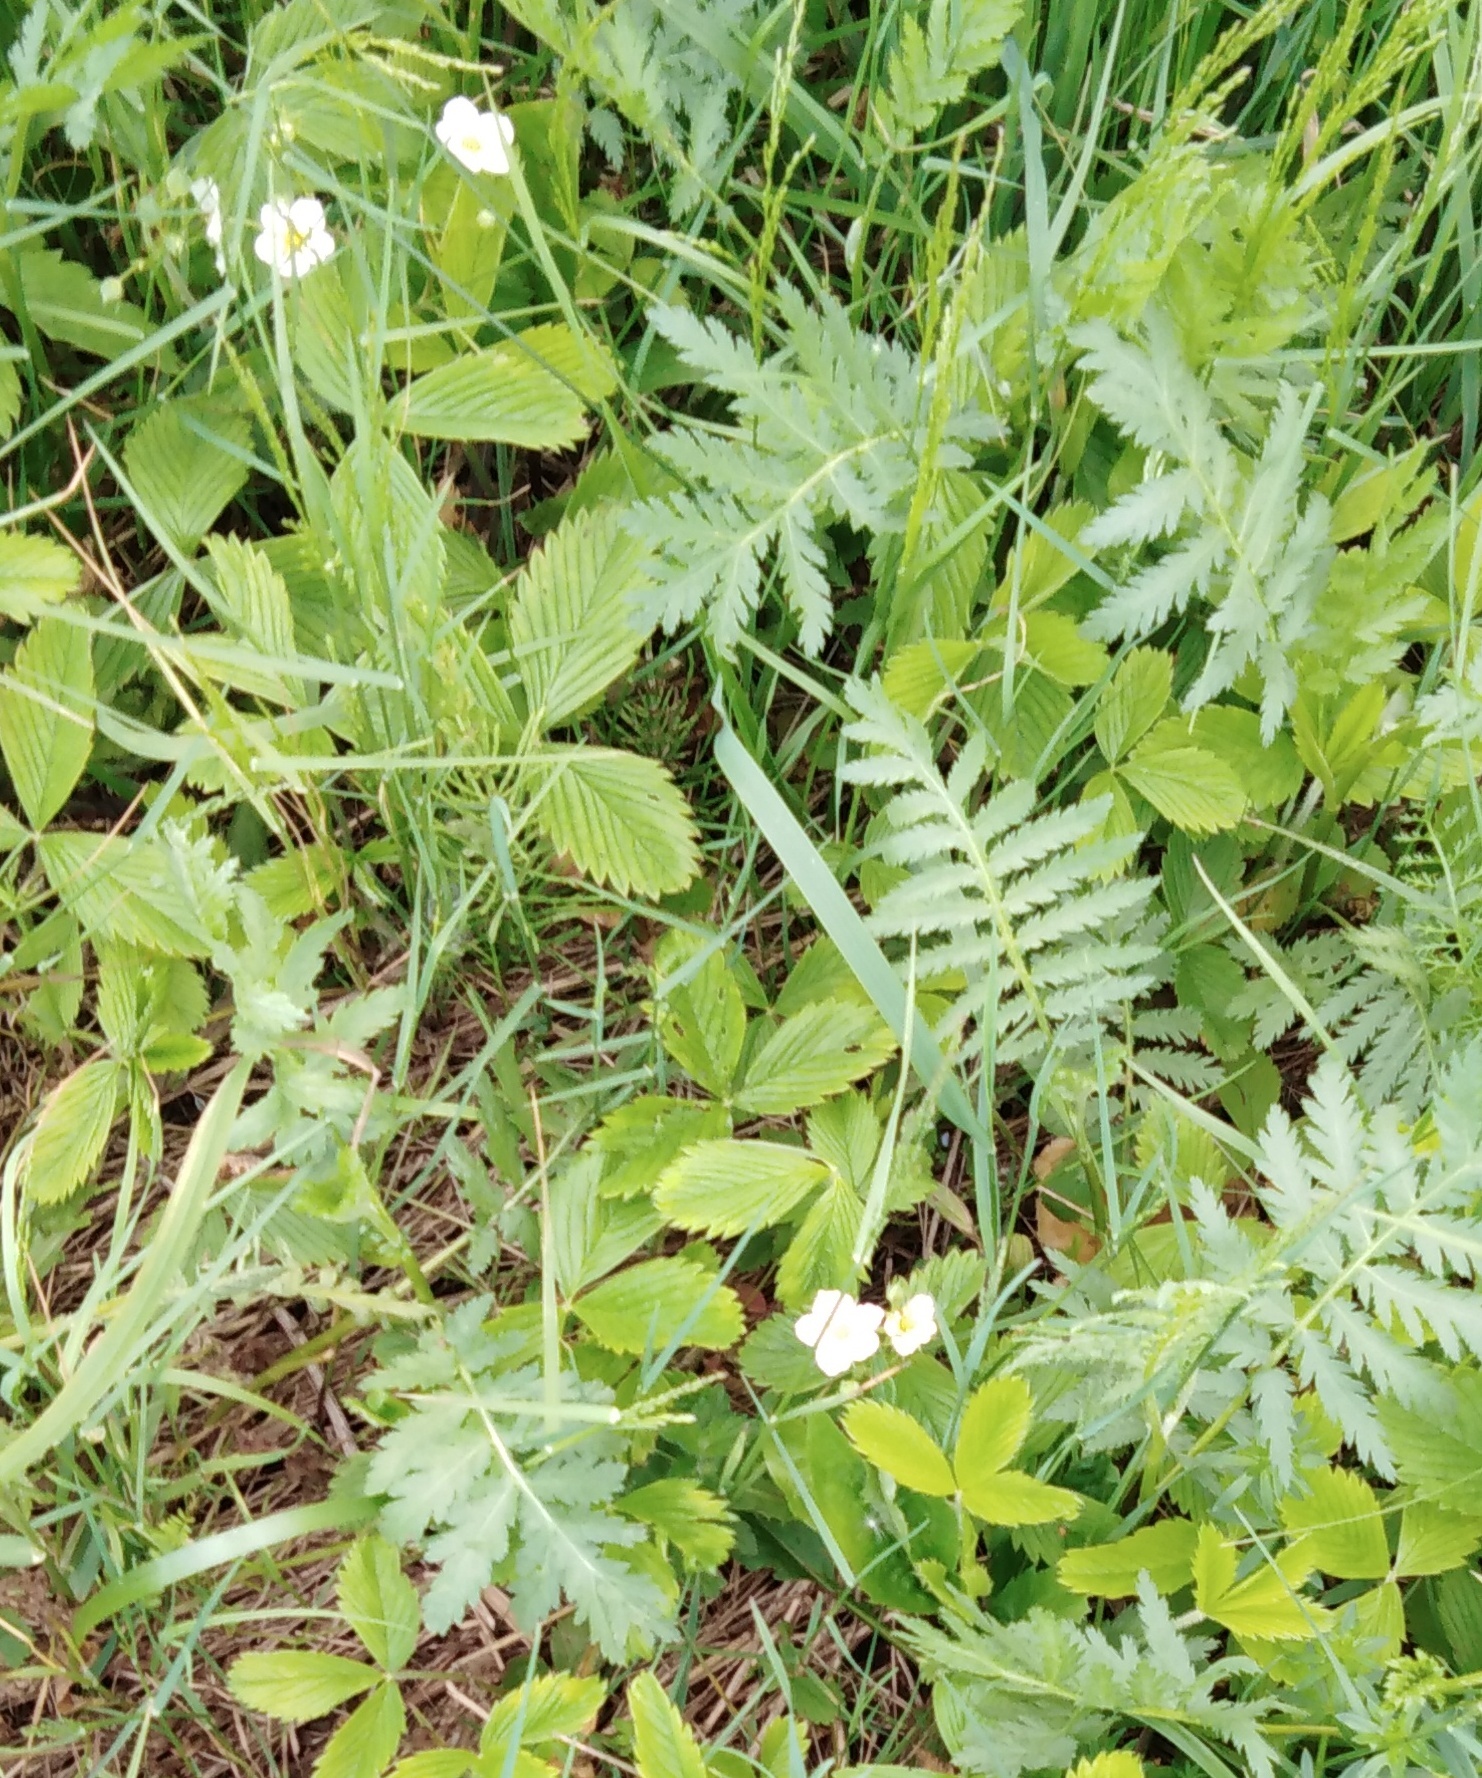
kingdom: Plantae
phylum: Tracheophyta
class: Magnoliopsida
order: Rosales
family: Rosaceae
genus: Fragaria
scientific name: Fragaria viridis
